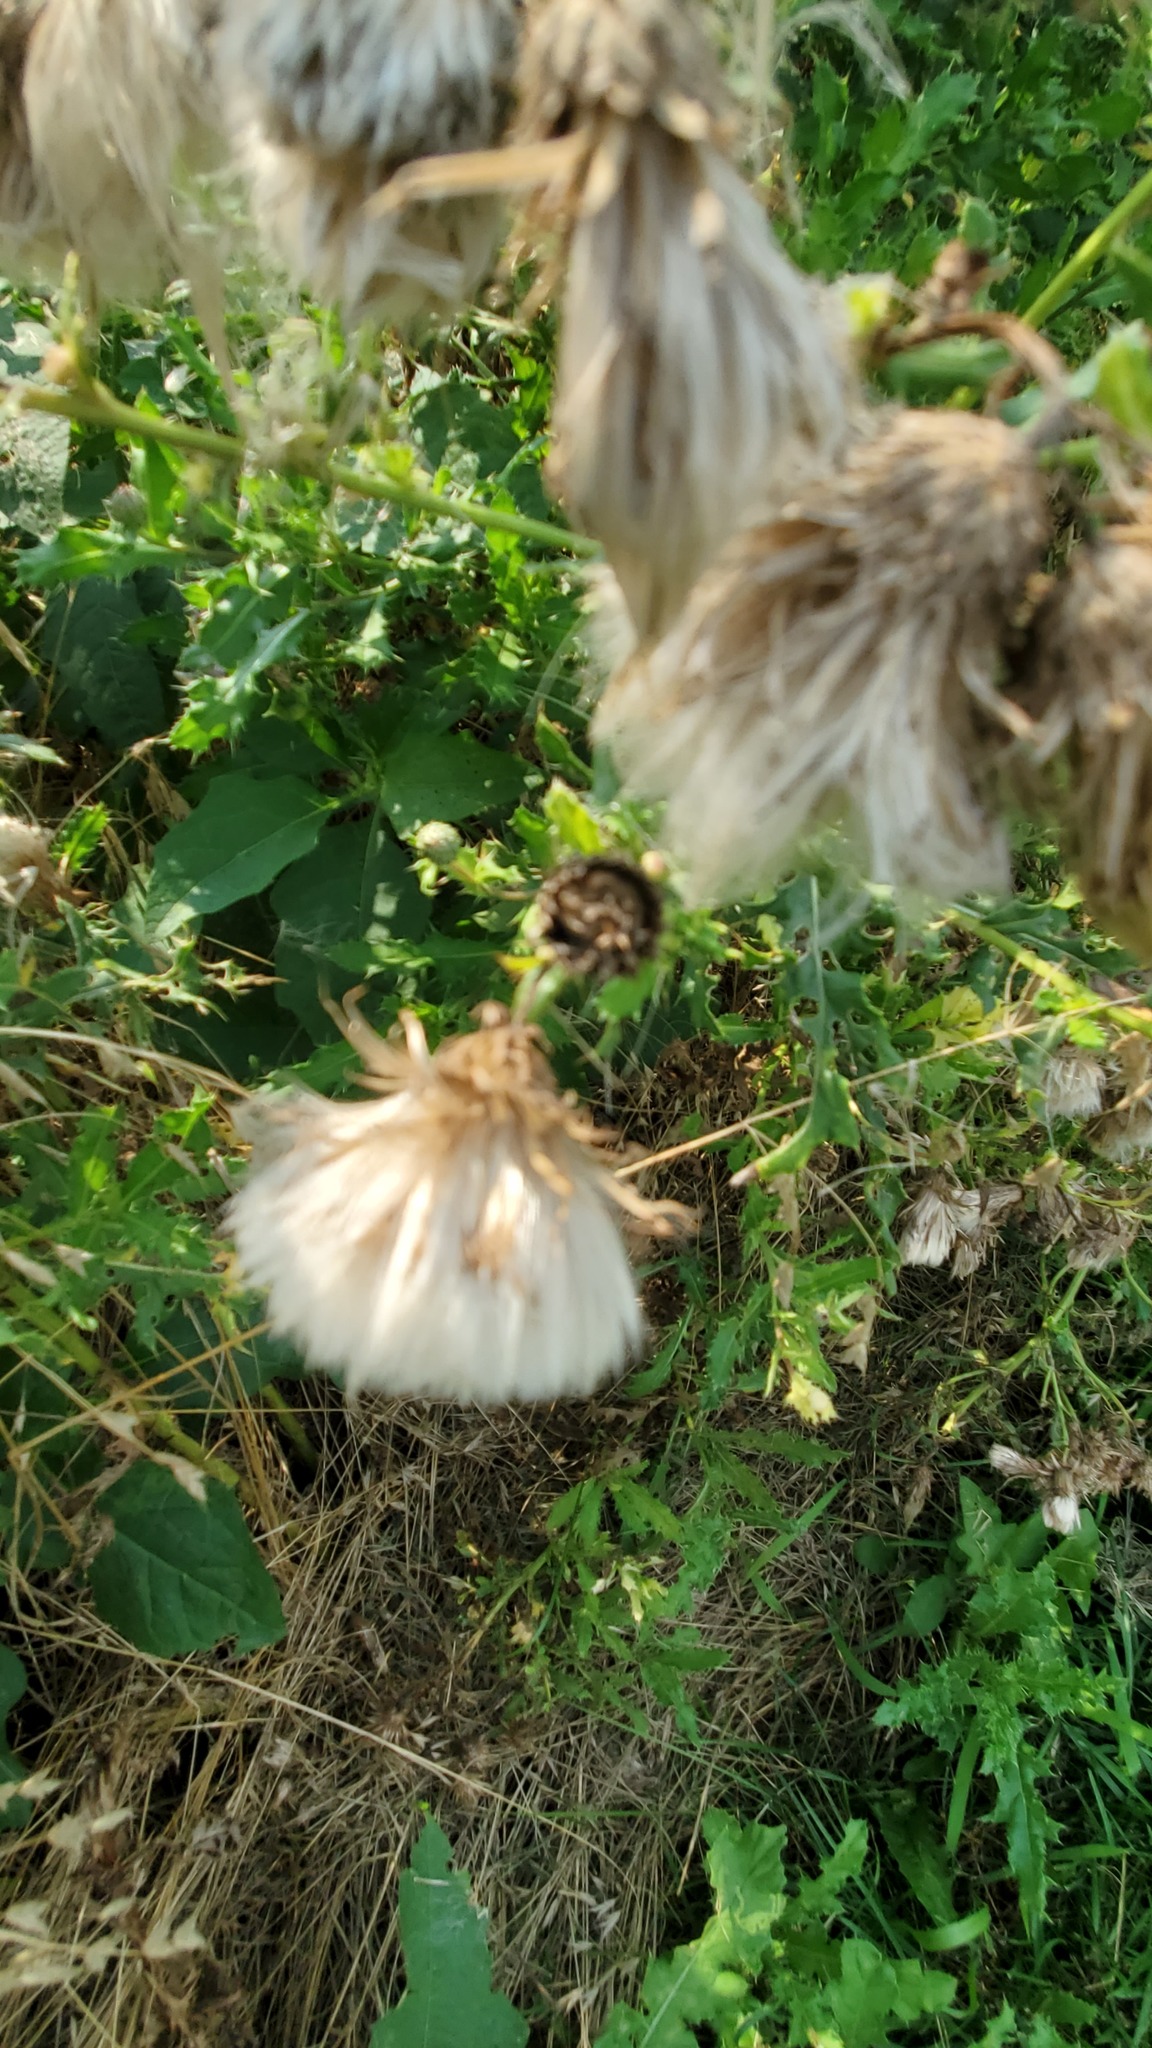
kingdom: Plantae
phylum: Tracheophyta
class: Magnoliopsida
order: Asterales
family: Asteraceae
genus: Cirsium
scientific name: Cirsium arvense
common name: Creeping thistle
